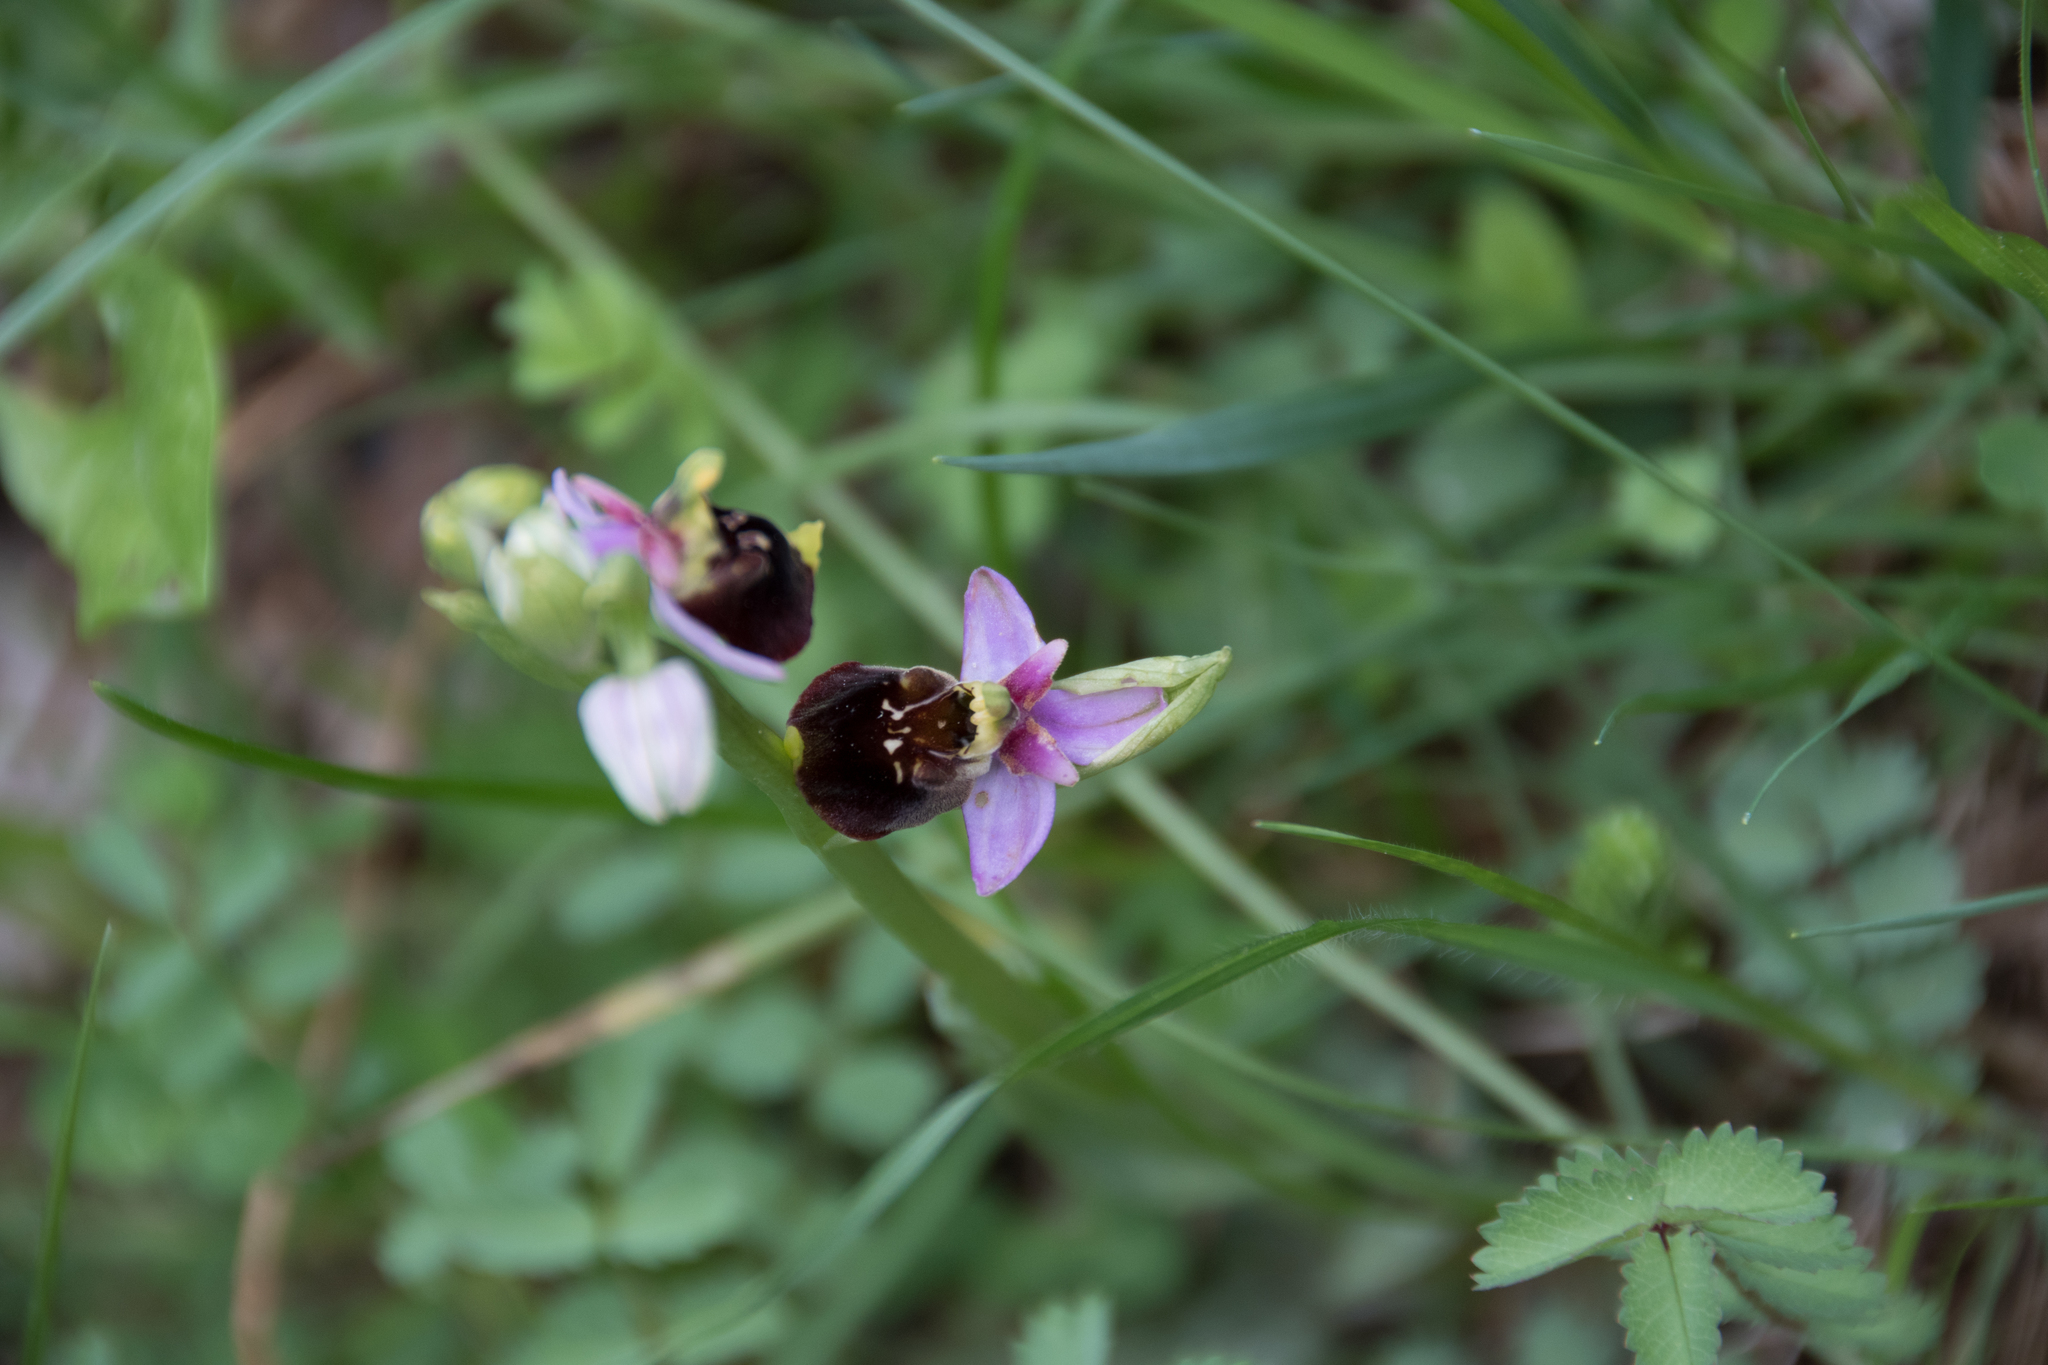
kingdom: Plantae
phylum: Tracheophyta
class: Liliopsida
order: Asparagales
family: Orchidaceae
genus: Ophrys
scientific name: Ophrys holosericea
